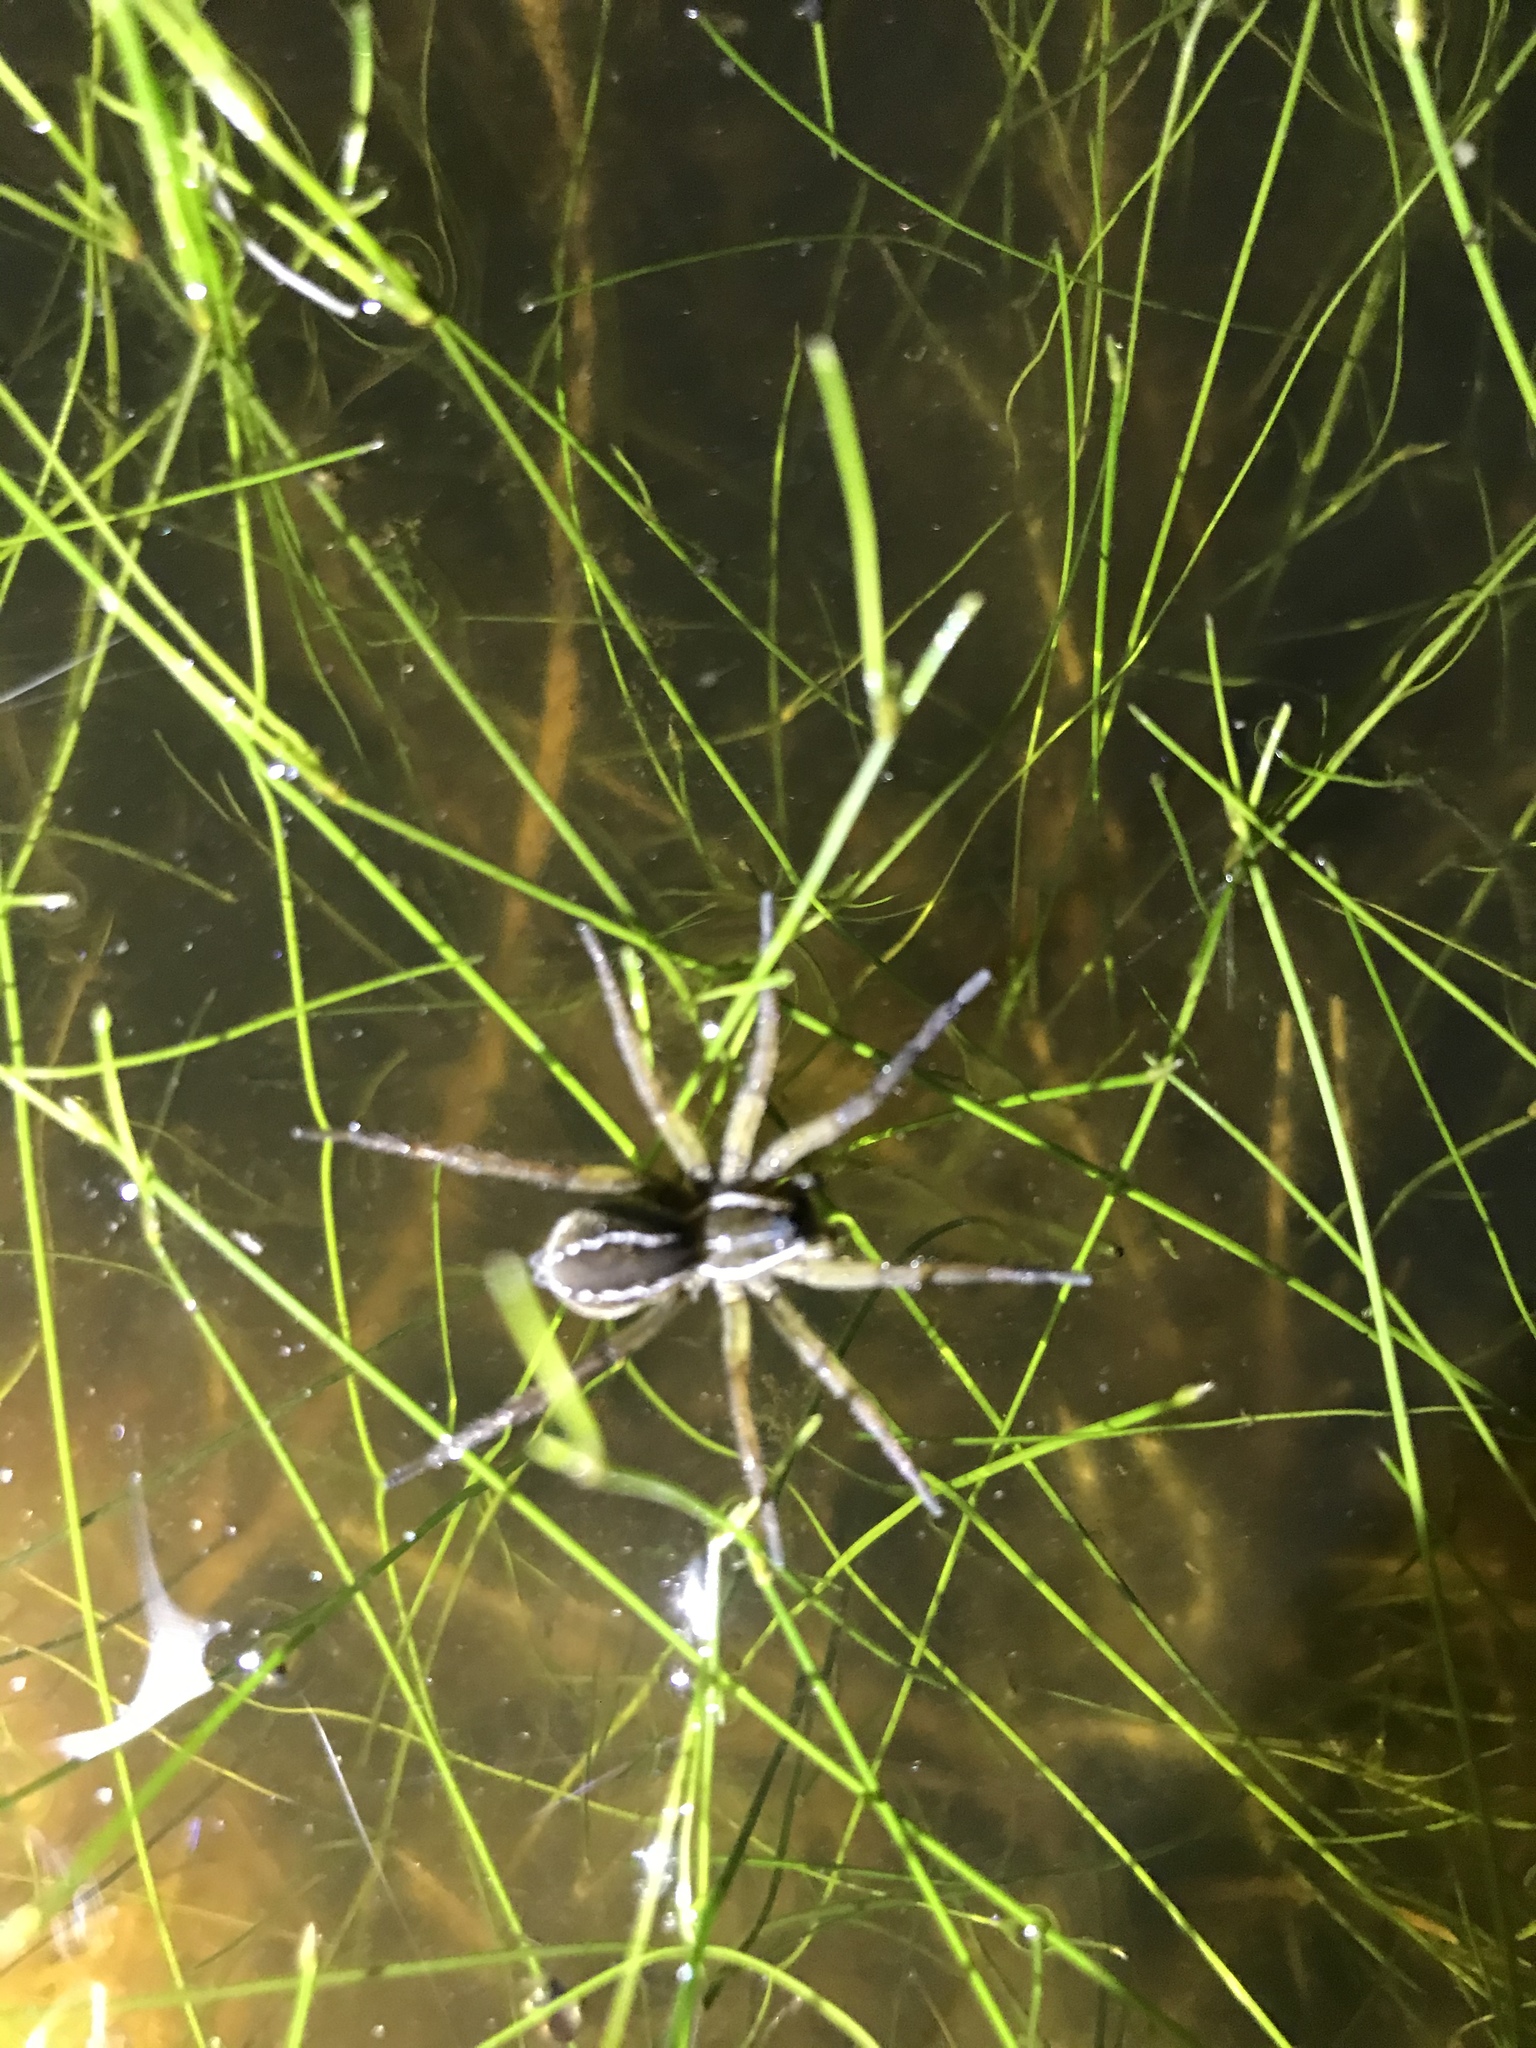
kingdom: Animalia
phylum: Arthropoda
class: Arachnida
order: Araneae
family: Lycosidae
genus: Diapontia
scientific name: Diapontia uruguayensis
